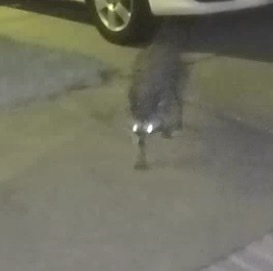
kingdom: Animalia
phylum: Chordata
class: Mammalia
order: Carnivora
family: Procyonidae
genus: Procyon
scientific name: Procyon lotor
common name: Raccoon
